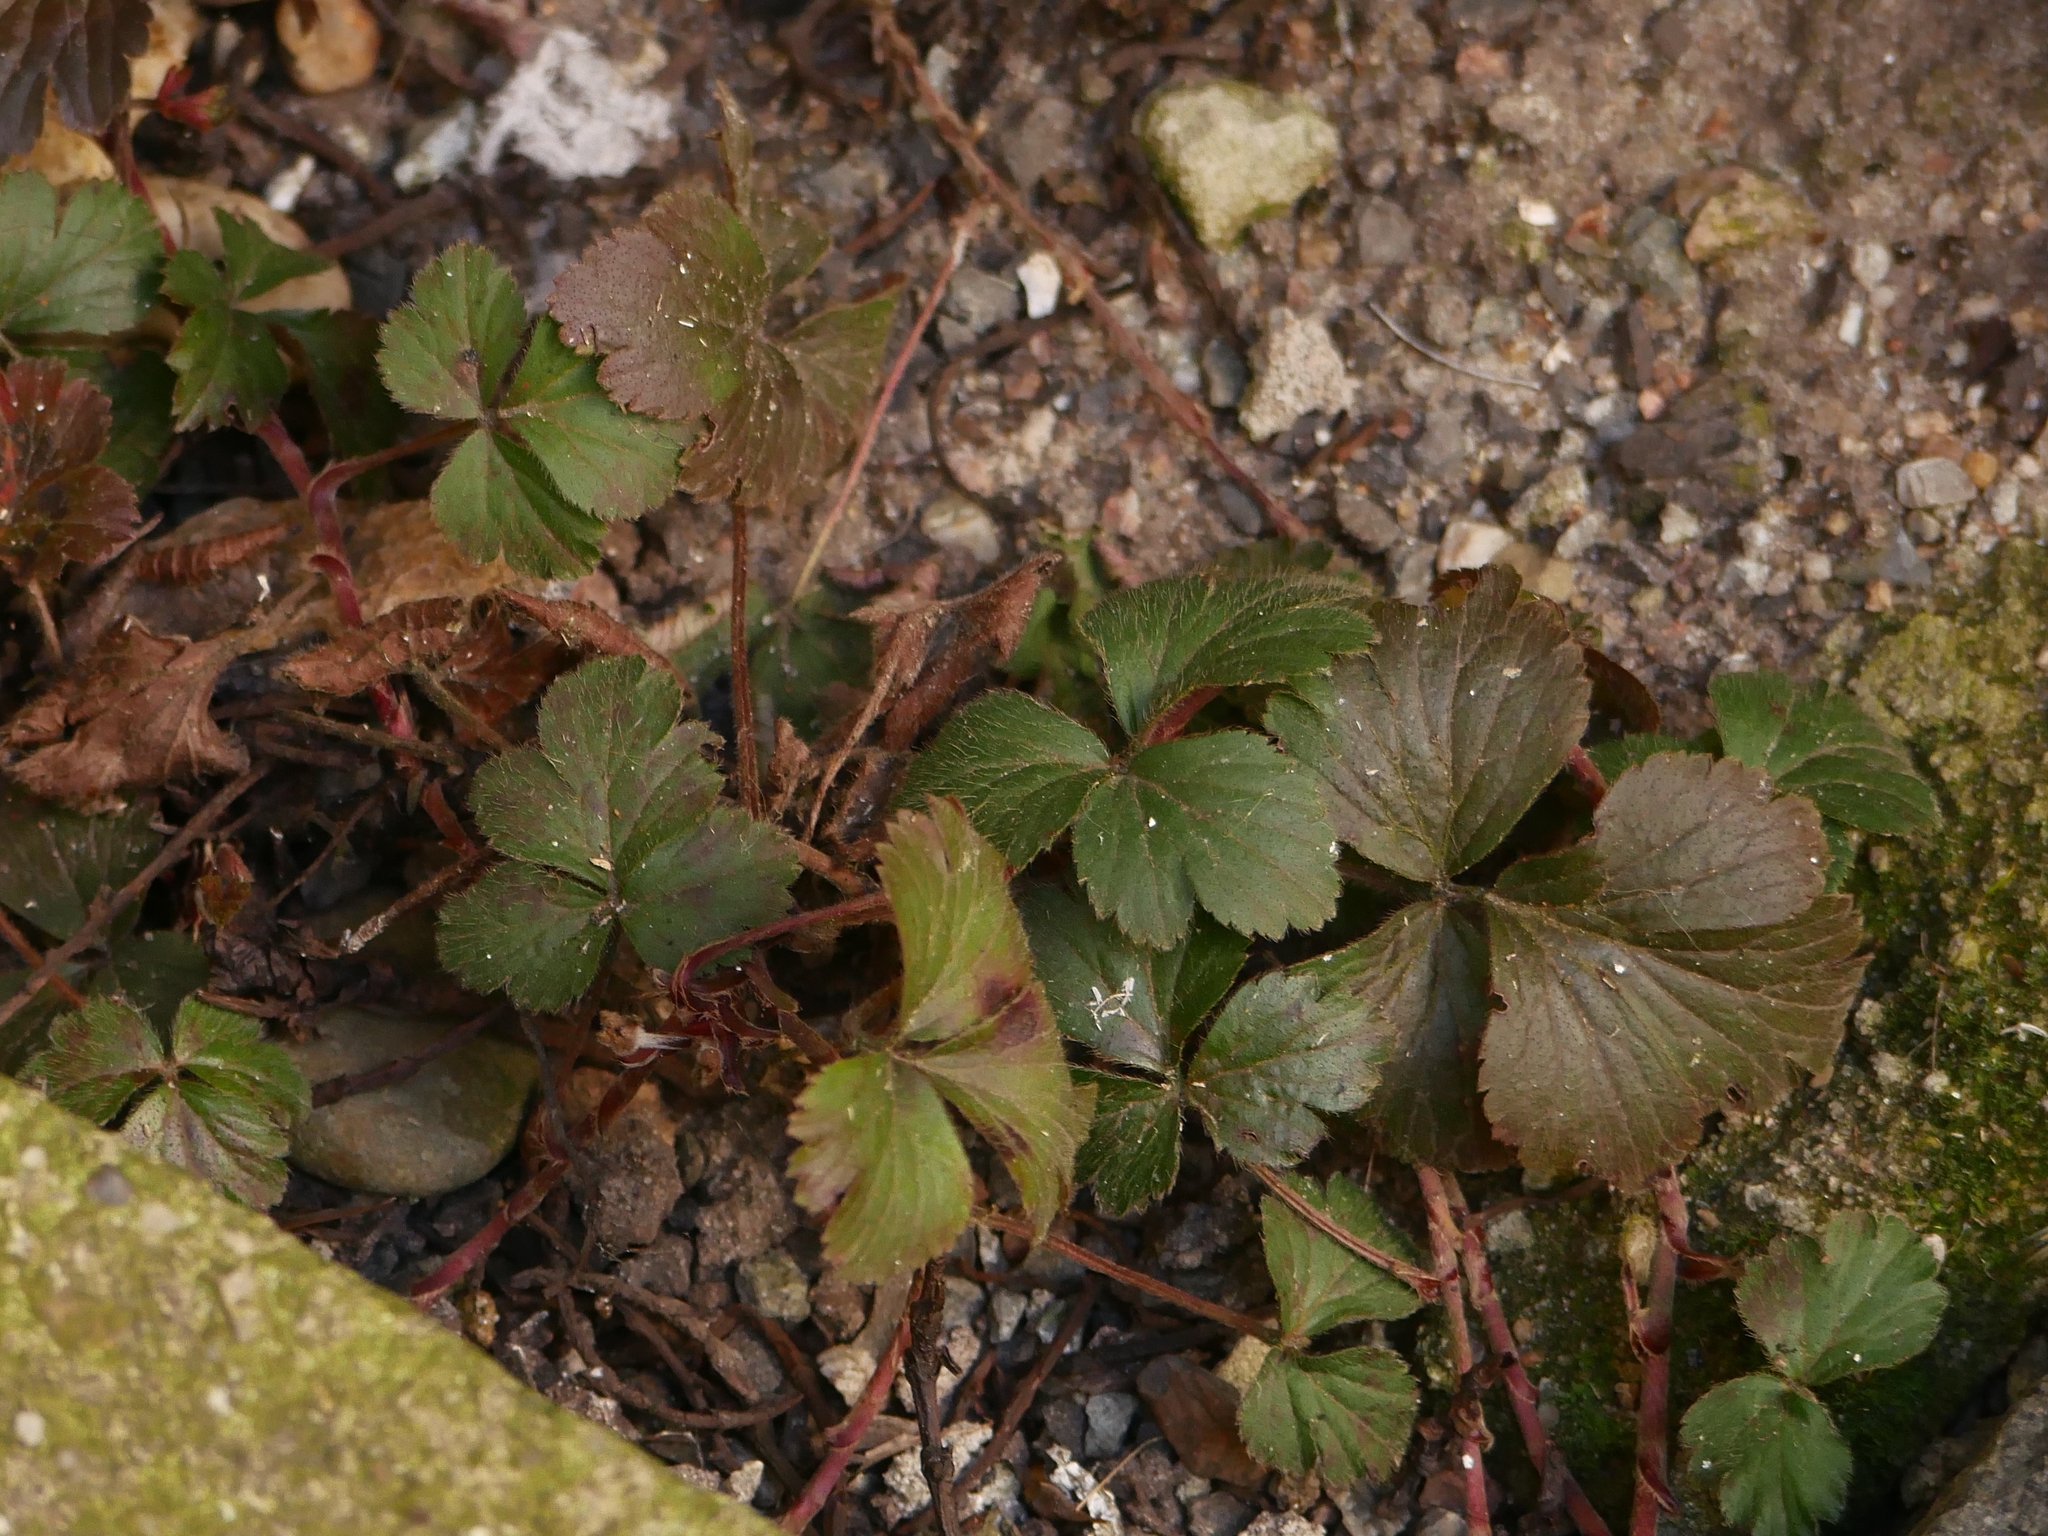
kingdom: Plantae
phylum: Tracheophyta
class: Magnoliopsida
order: Rosales
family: Rosaceae
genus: Geum
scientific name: Geum urbanum
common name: Wood avens
